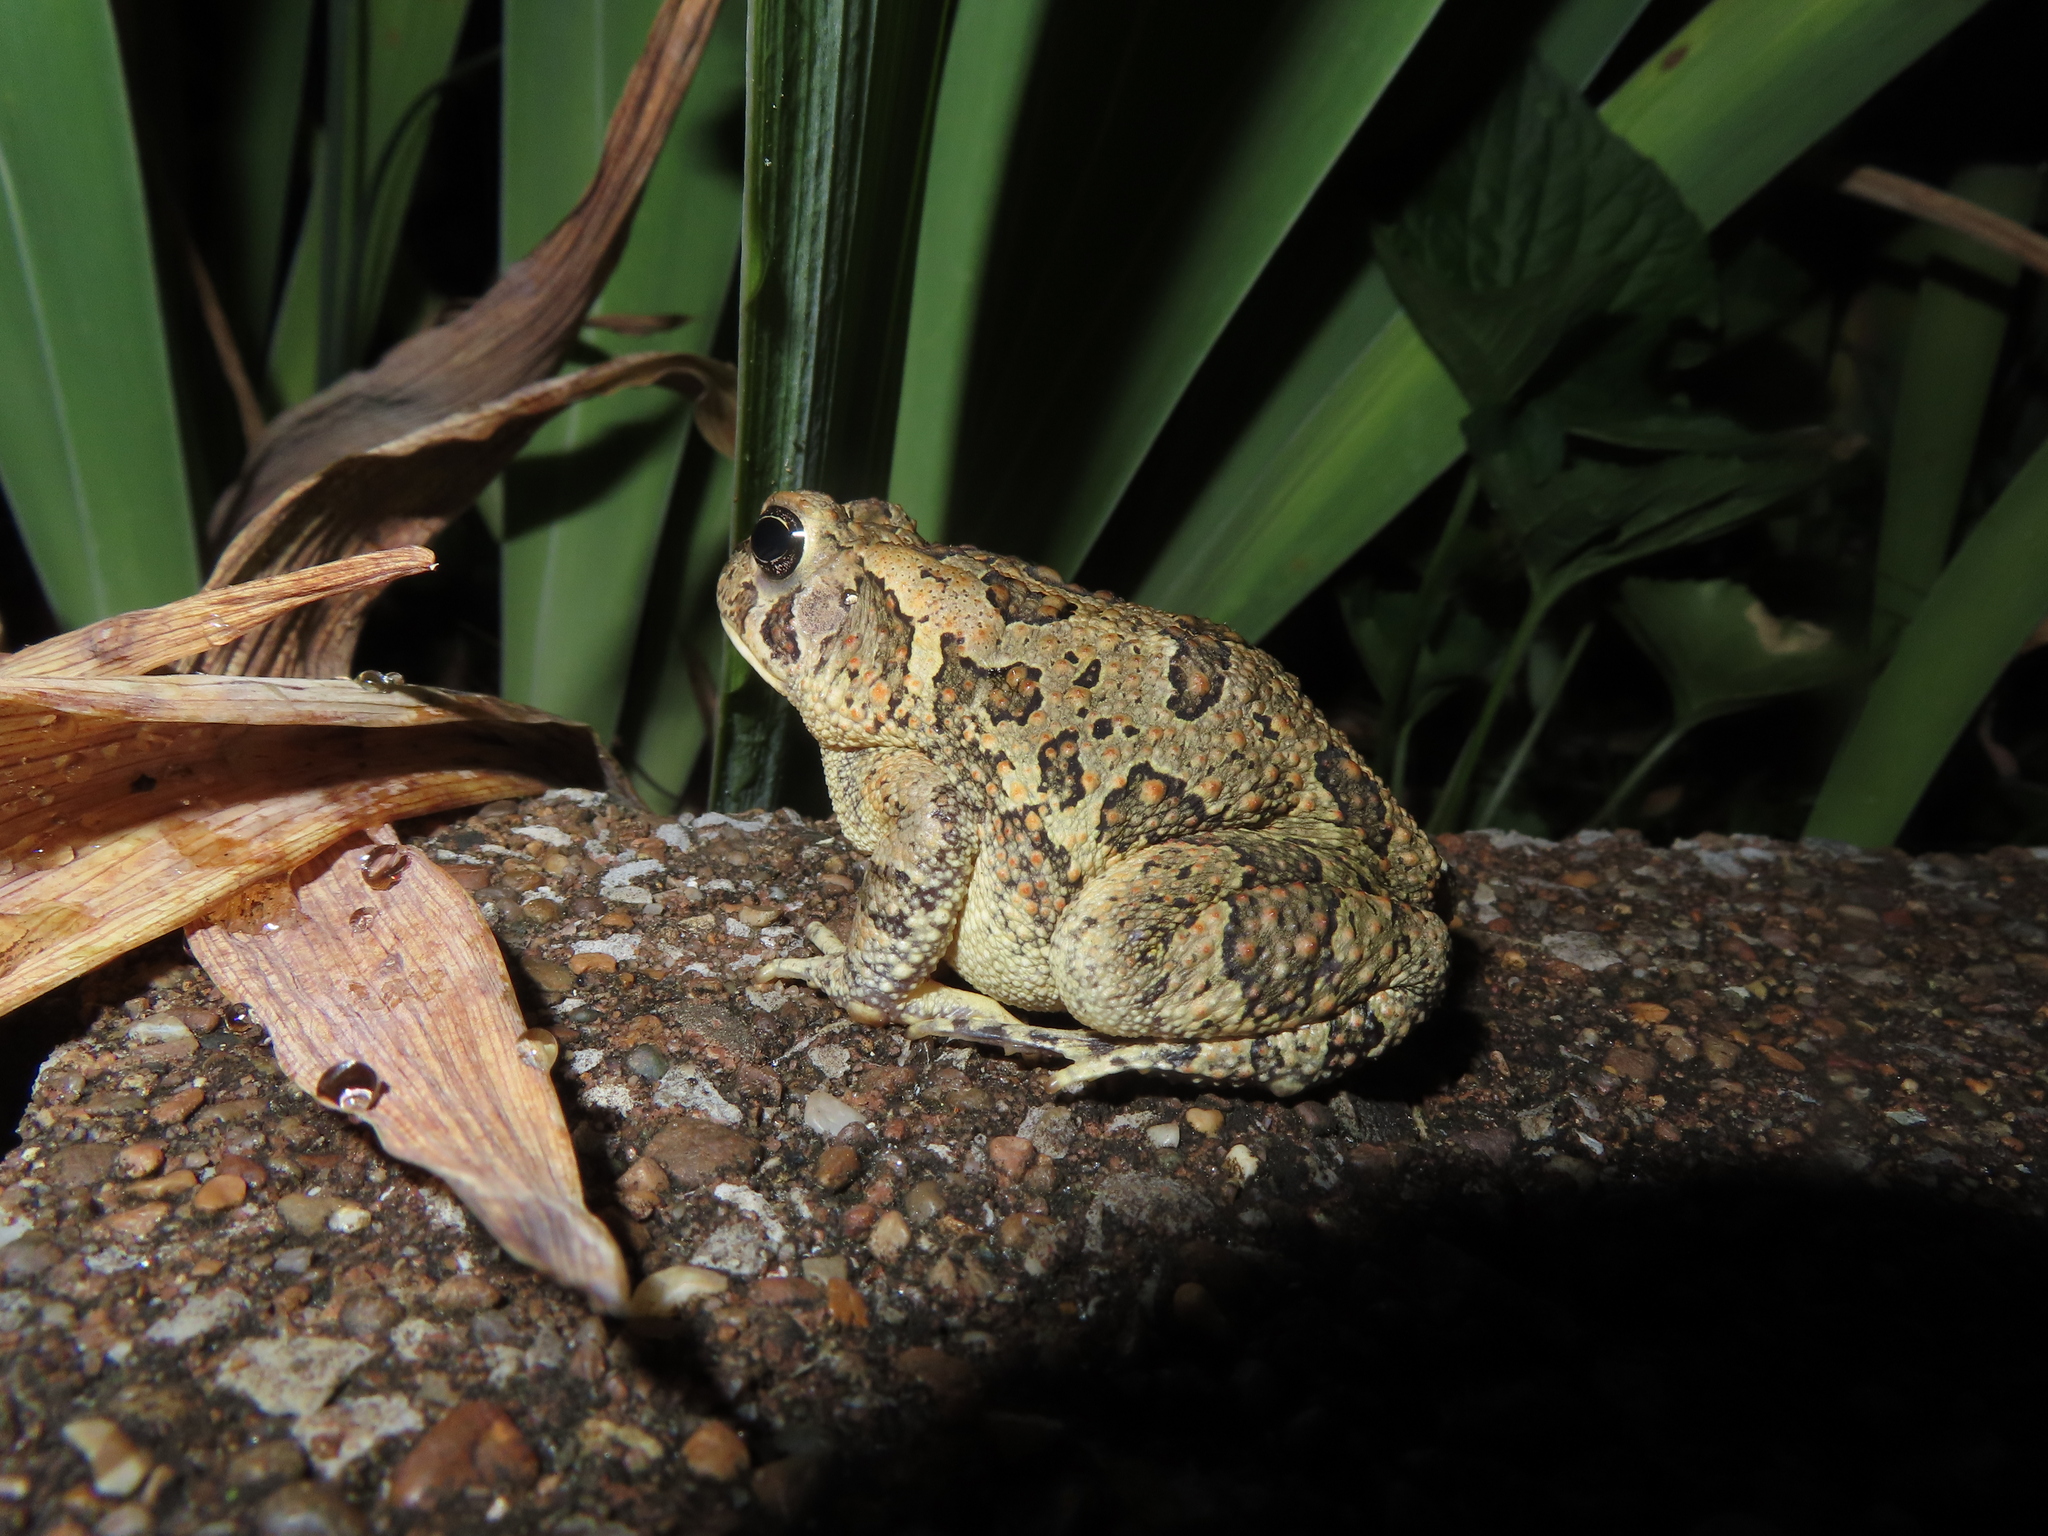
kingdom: Animalia
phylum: Chordata
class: Amphibia
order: Anura
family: Bufonidae
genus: Anaxyrus
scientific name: Anaxyrus fowleri
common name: Fowler's toad
